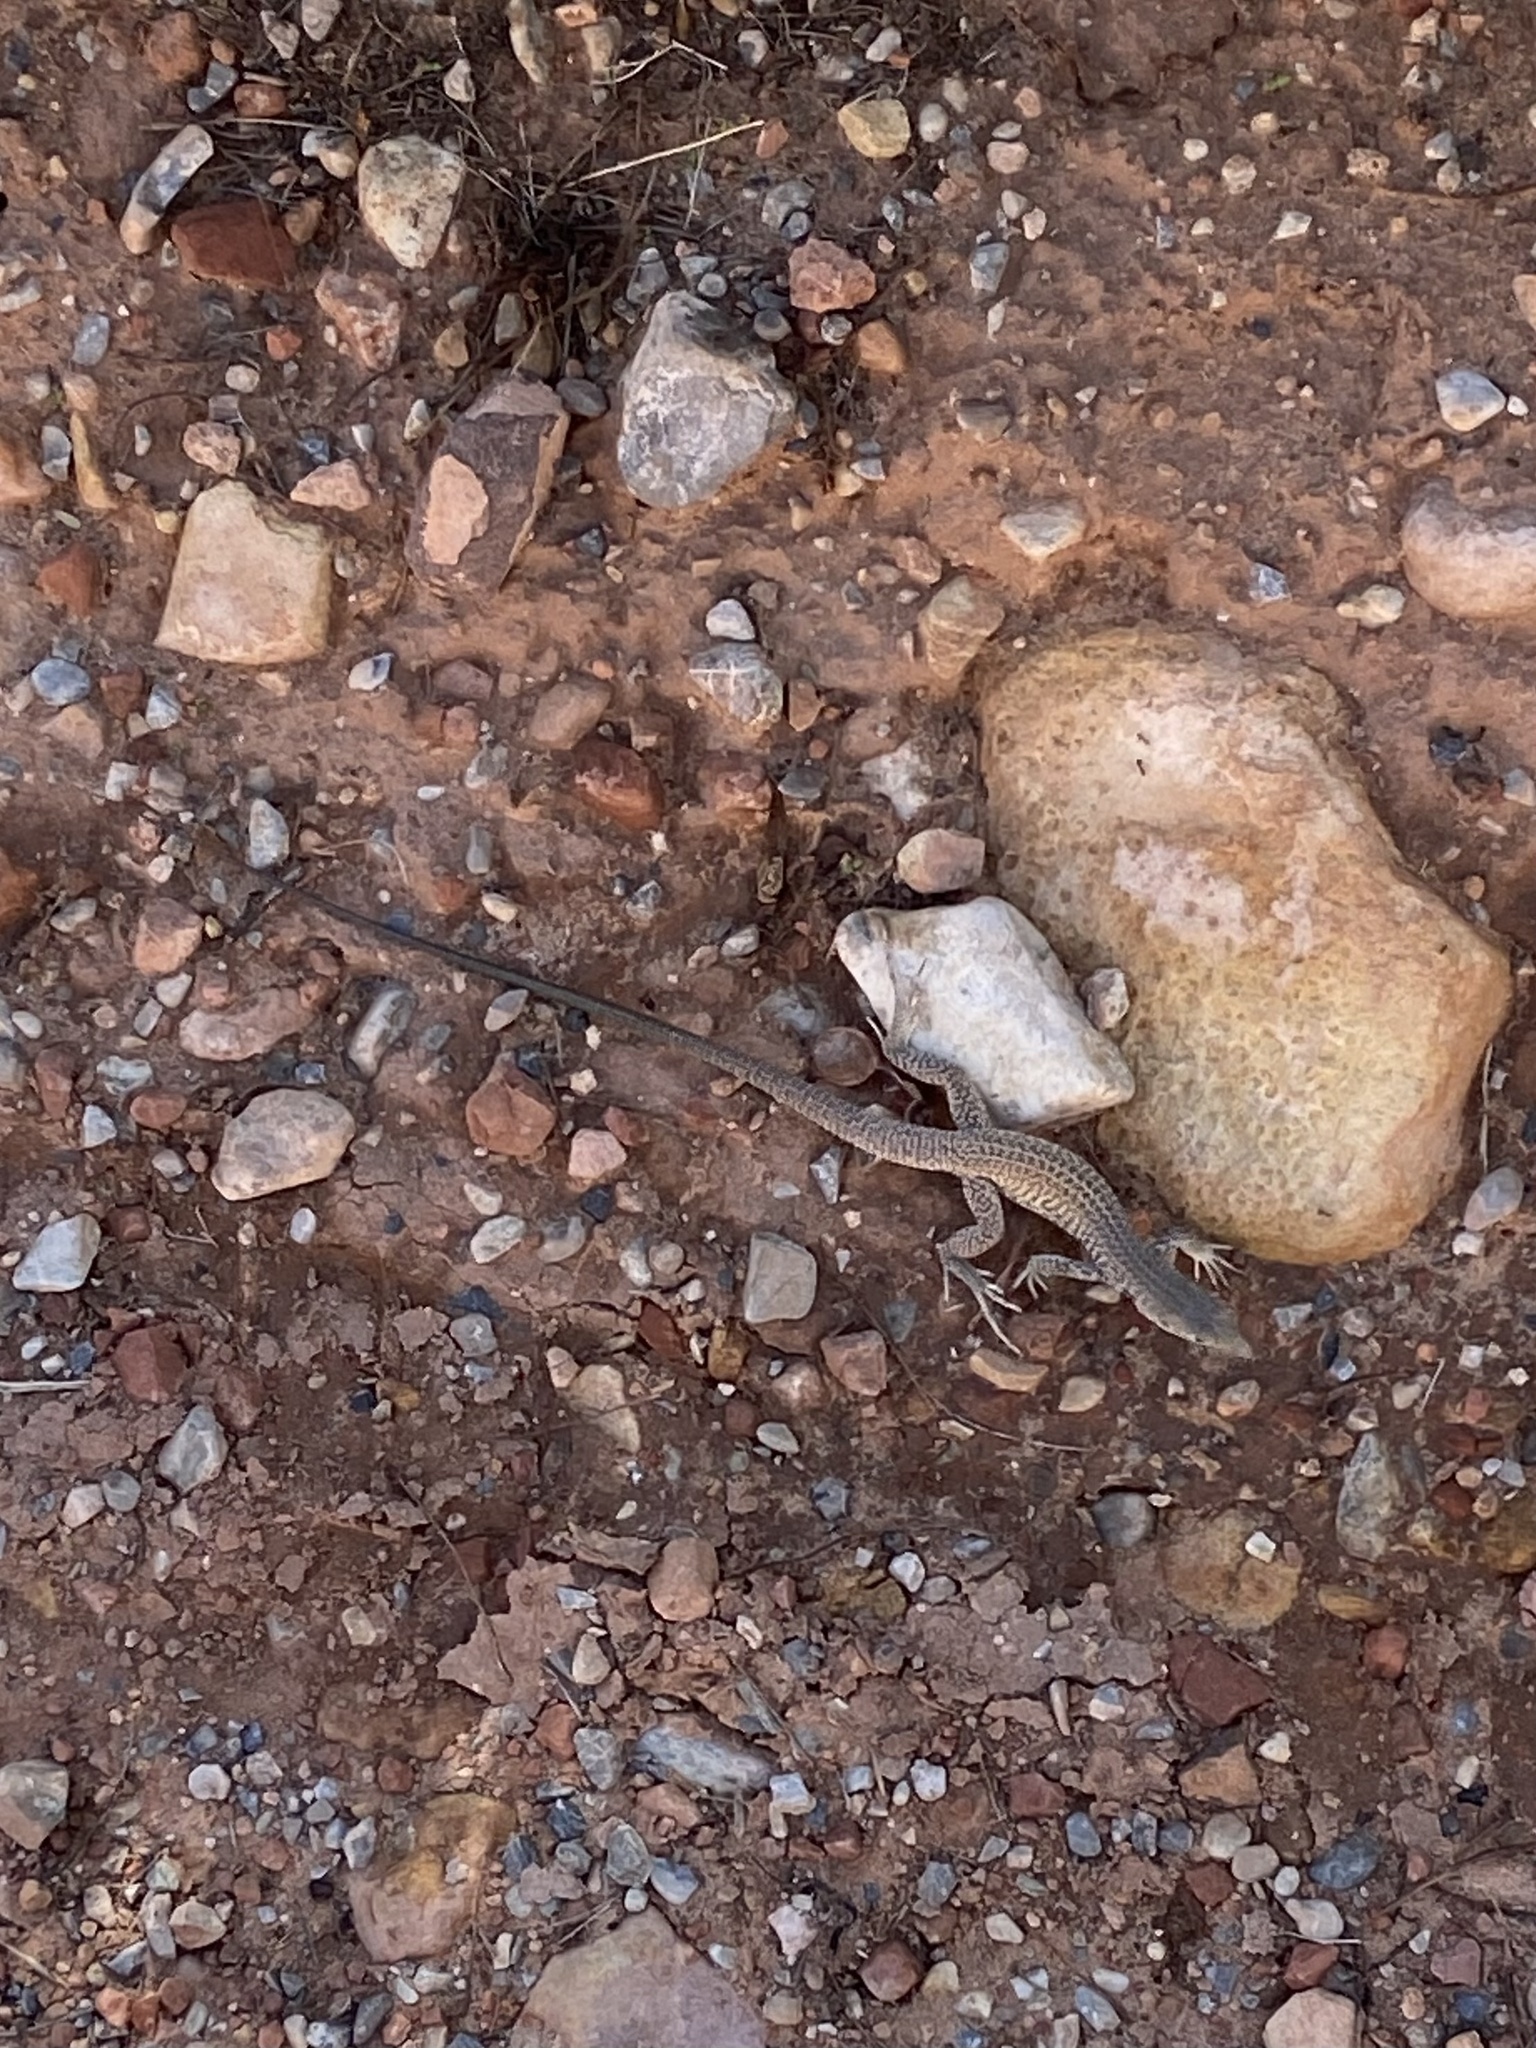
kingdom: Animalia
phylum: Chordata
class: Squamata
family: Teiidae
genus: Aspidoscelis
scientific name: Aspidoscelis tigris
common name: Tiger whiptail
